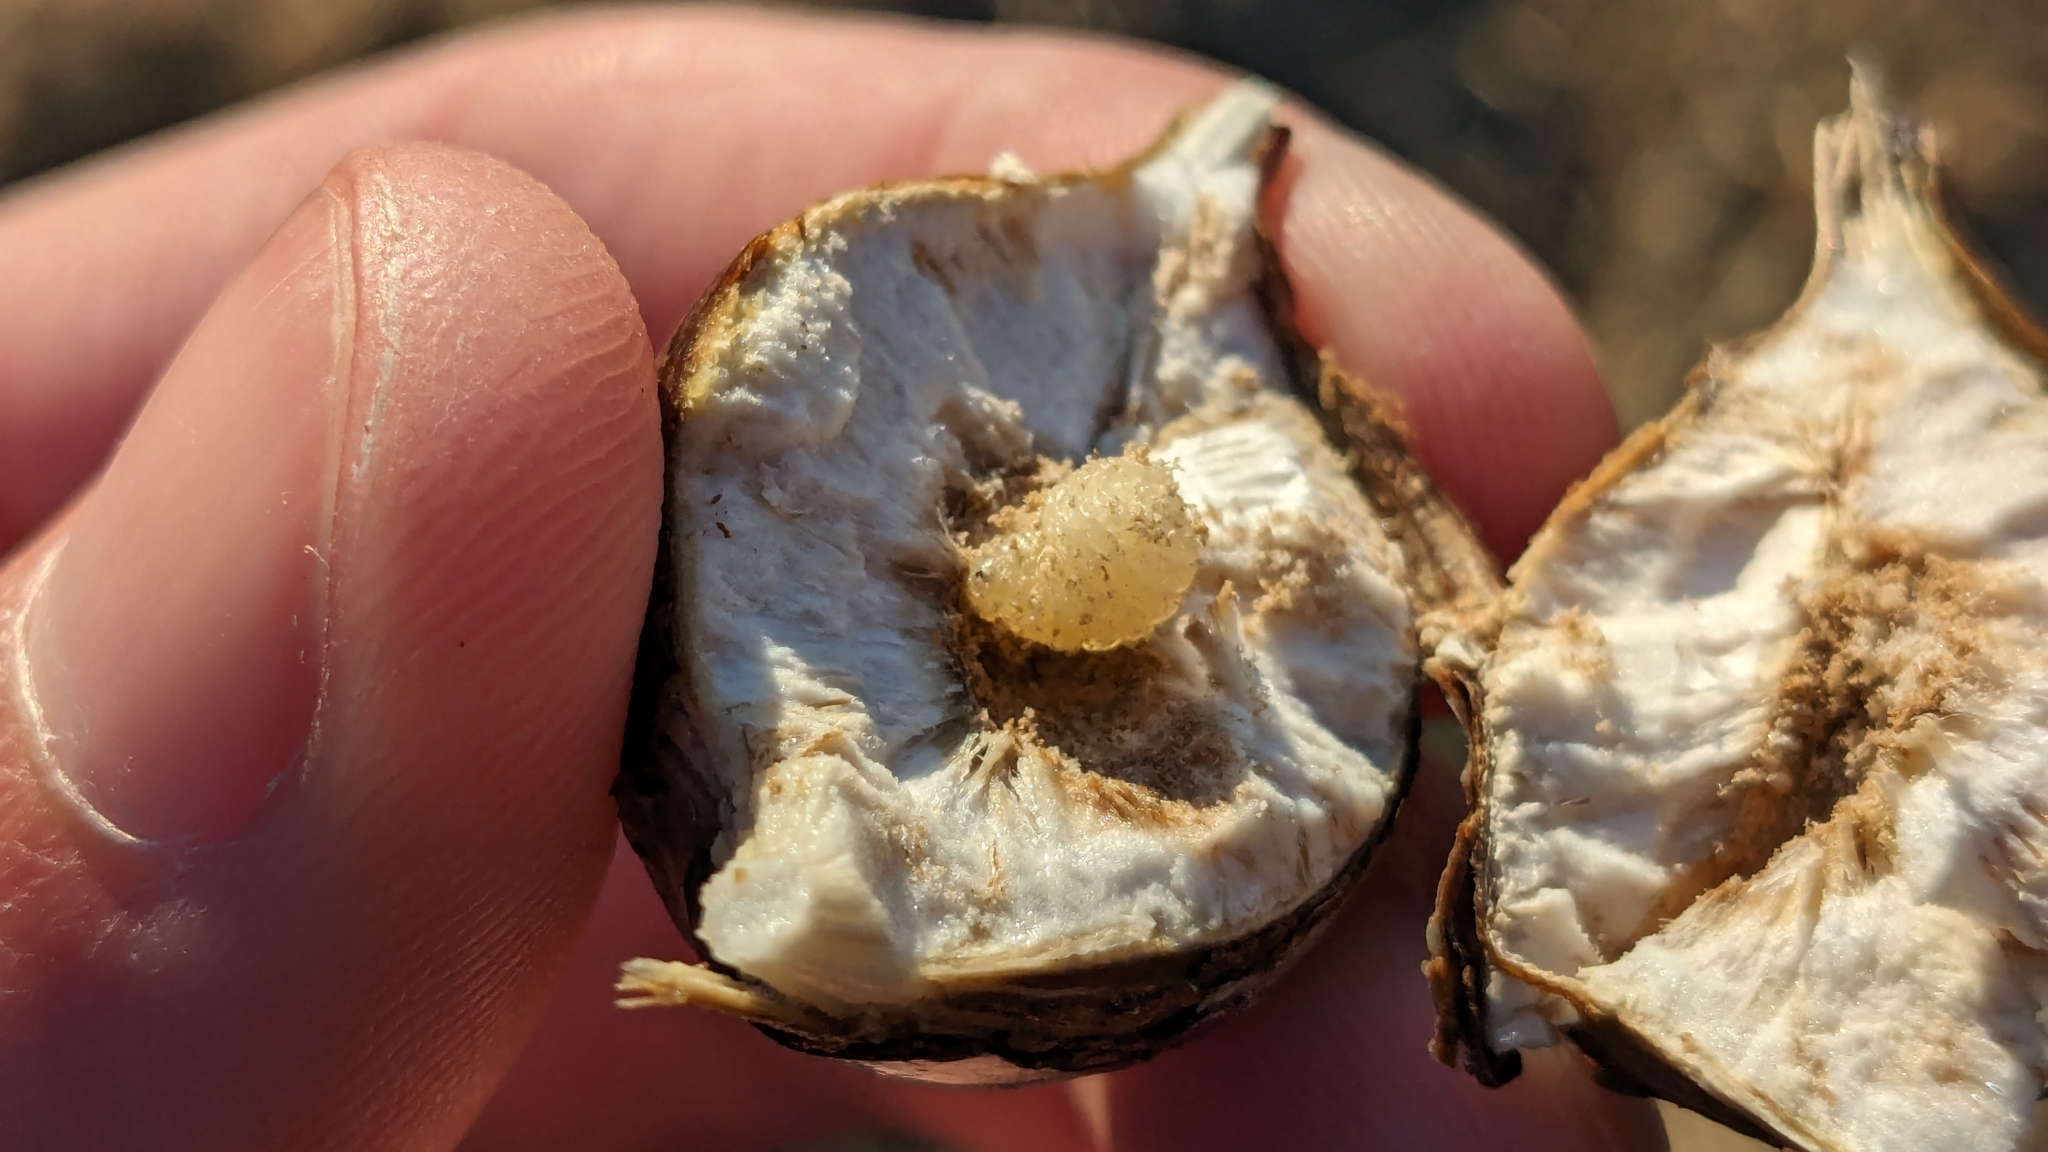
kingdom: Animalia
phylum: Arthropoda
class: Insecta
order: Diptera
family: Tephritidae
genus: Eurosta
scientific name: Eurosta solidaginis
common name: Goldenrod gall fly
